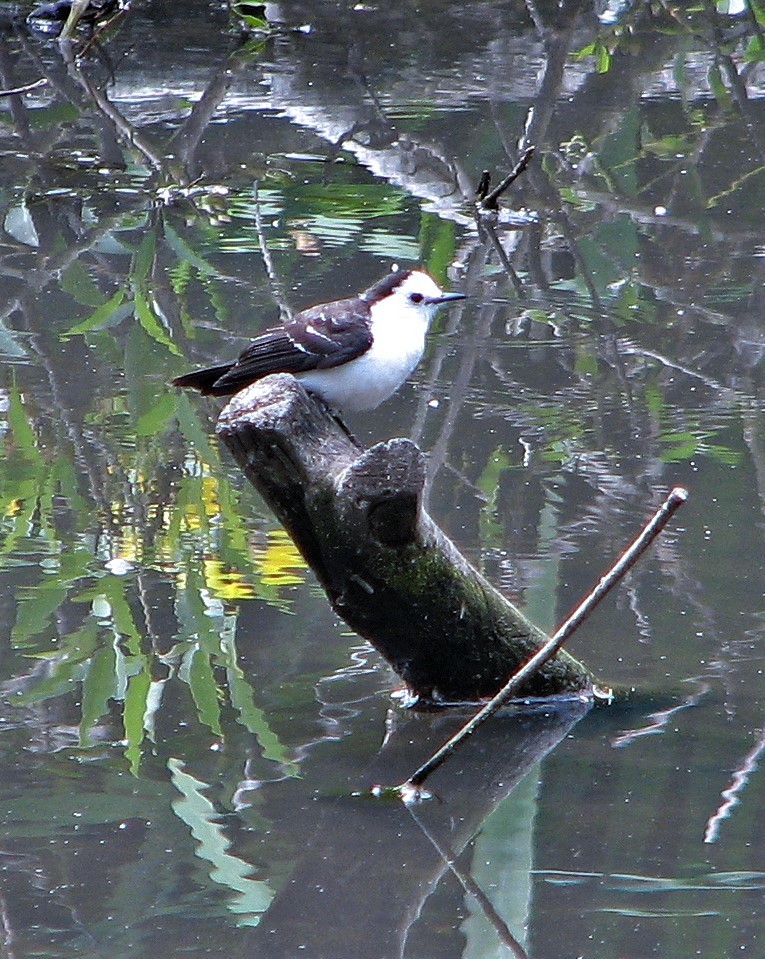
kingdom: Animalia
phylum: Chordata
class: Aves
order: Passeriformes
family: Tyrannidae
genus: Fluvicola
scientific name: Fluvicola pica
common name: Pied water-tyrant
